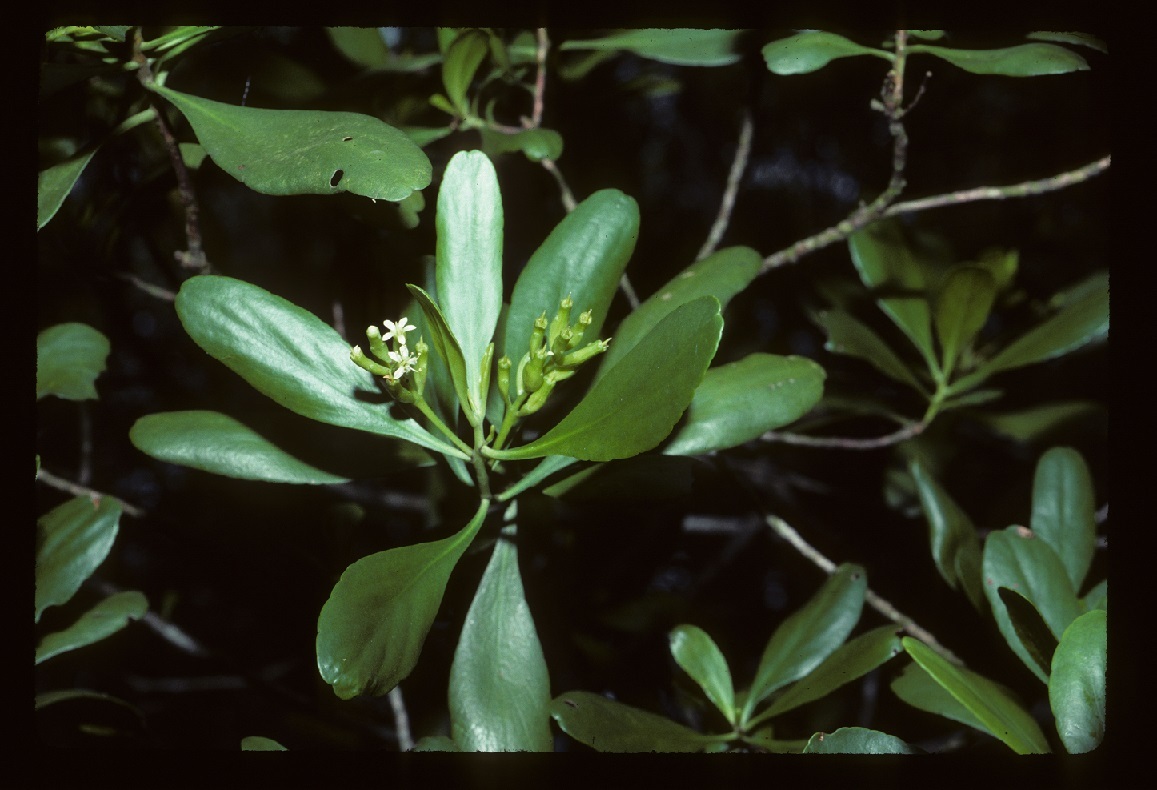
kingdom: Plantae
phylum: Tracheophyta
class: Magnoliopsida
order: Myrtales
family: Combretaceae
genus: Lumnitzera
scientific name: Lumnitzera racemosa
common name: White-flowered black mangrove
